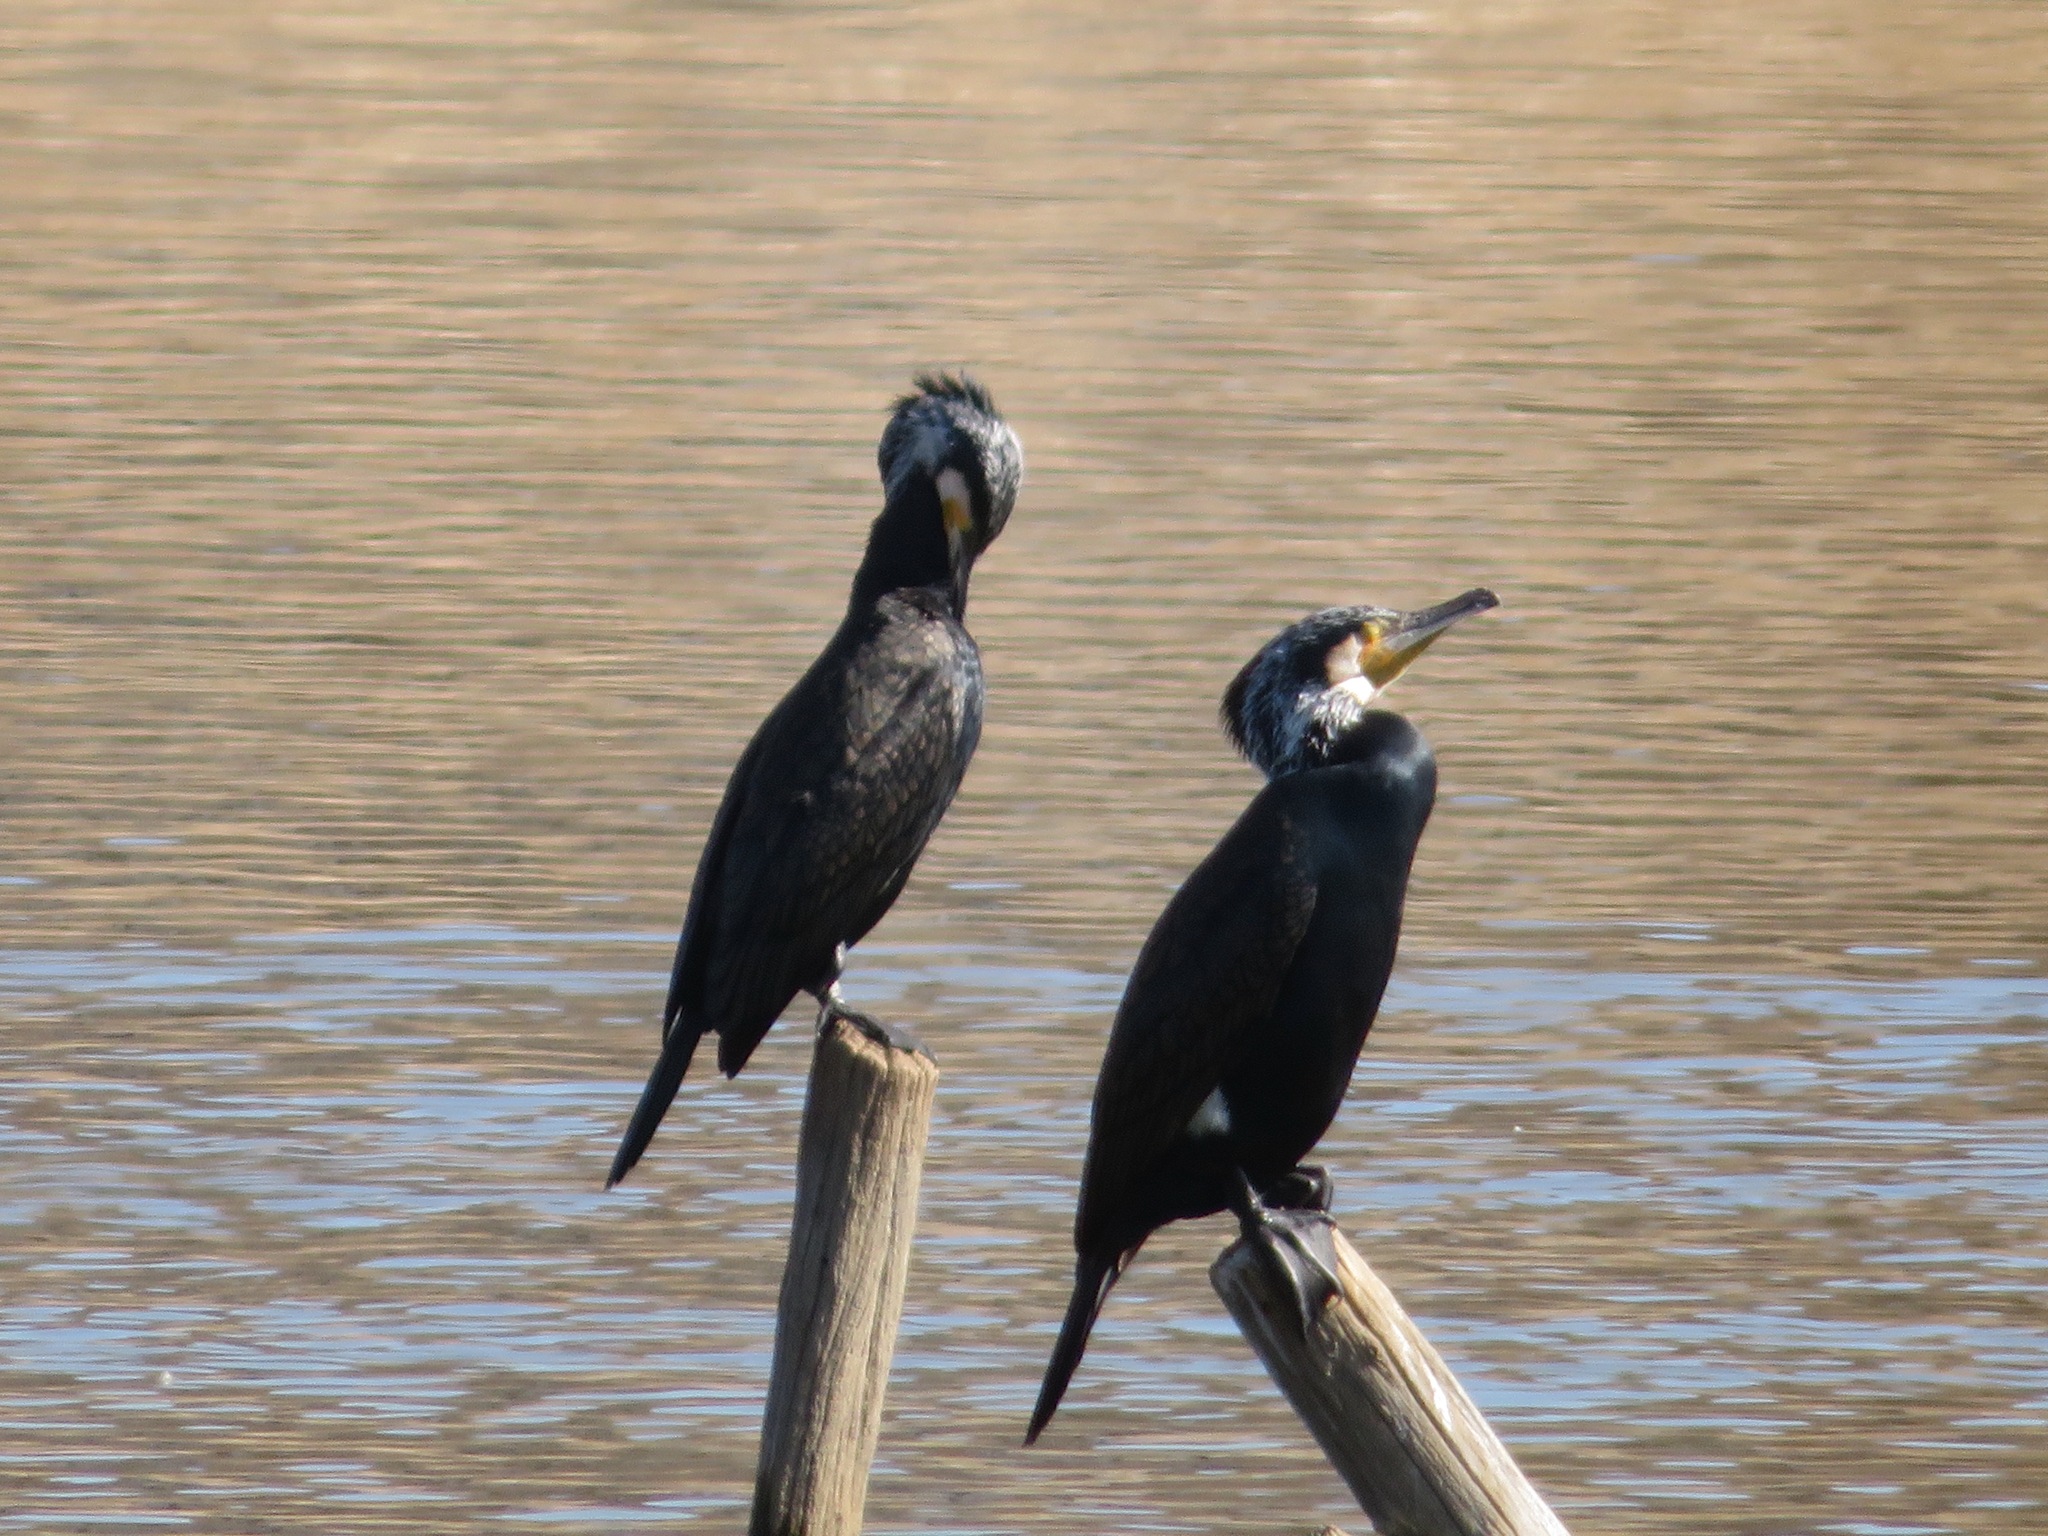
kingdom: Animalia
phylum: Chordata
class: Aves
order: Suliformes
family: Phalacrocoracidae
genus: Phalacrocorax
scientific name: Phalacrocorax carbo
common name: Great cormorant
